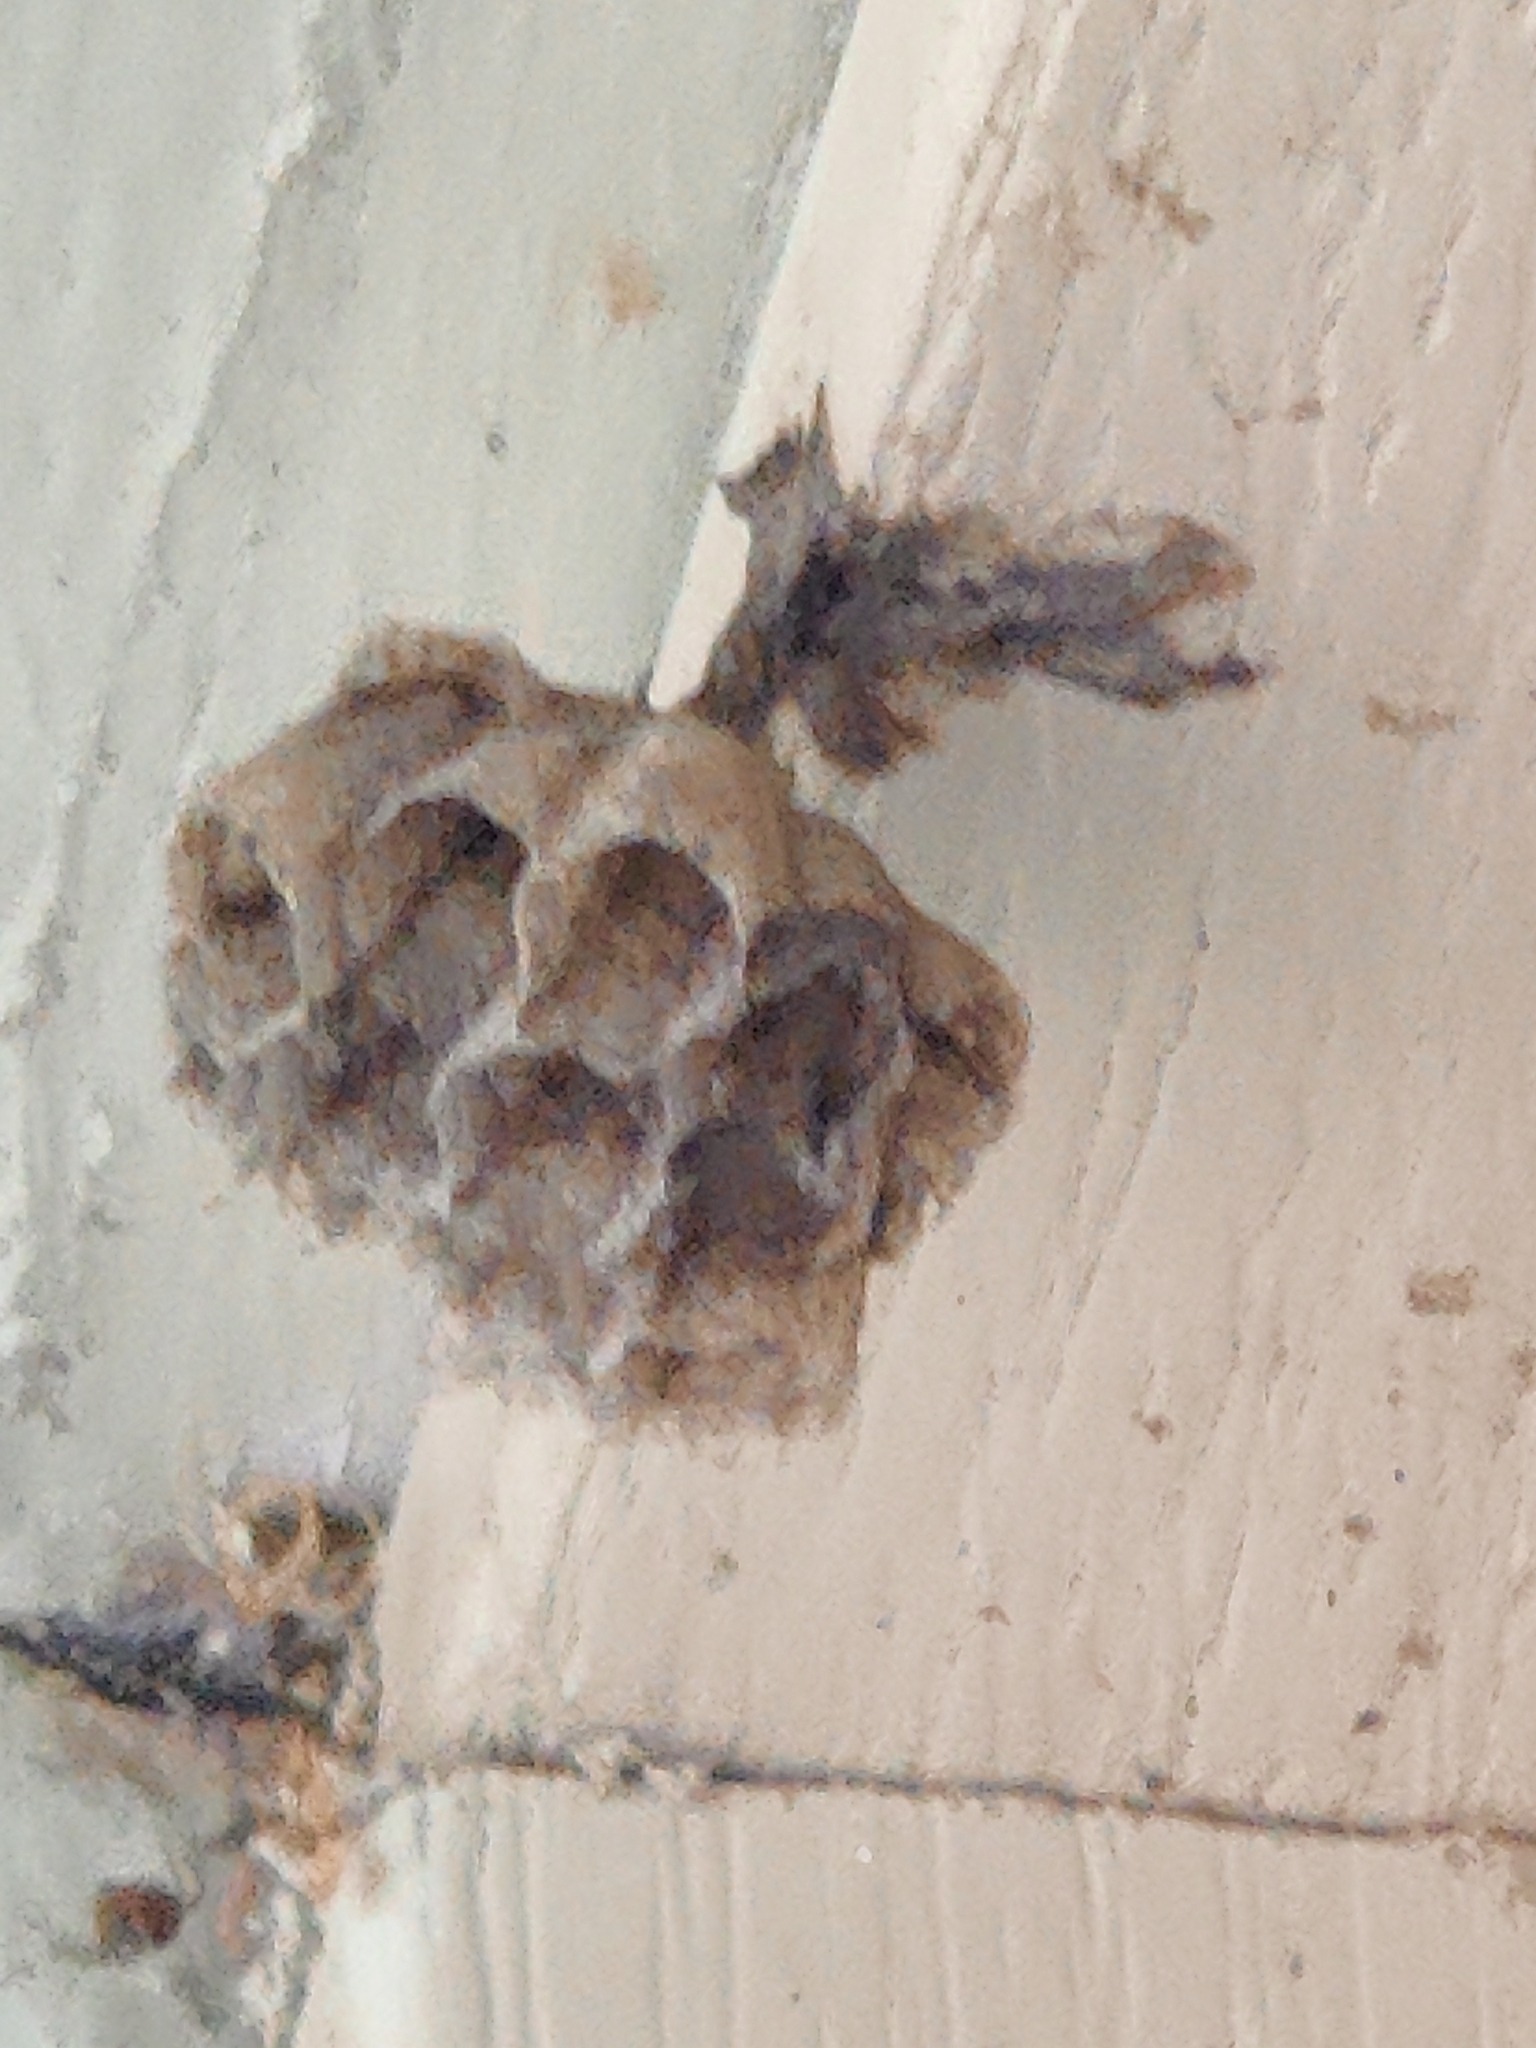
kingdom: Animalia
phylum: Arthropoda
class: Insecta
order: Hymenoptera
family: Eumenidae
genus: Polistes
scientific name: Polistes
